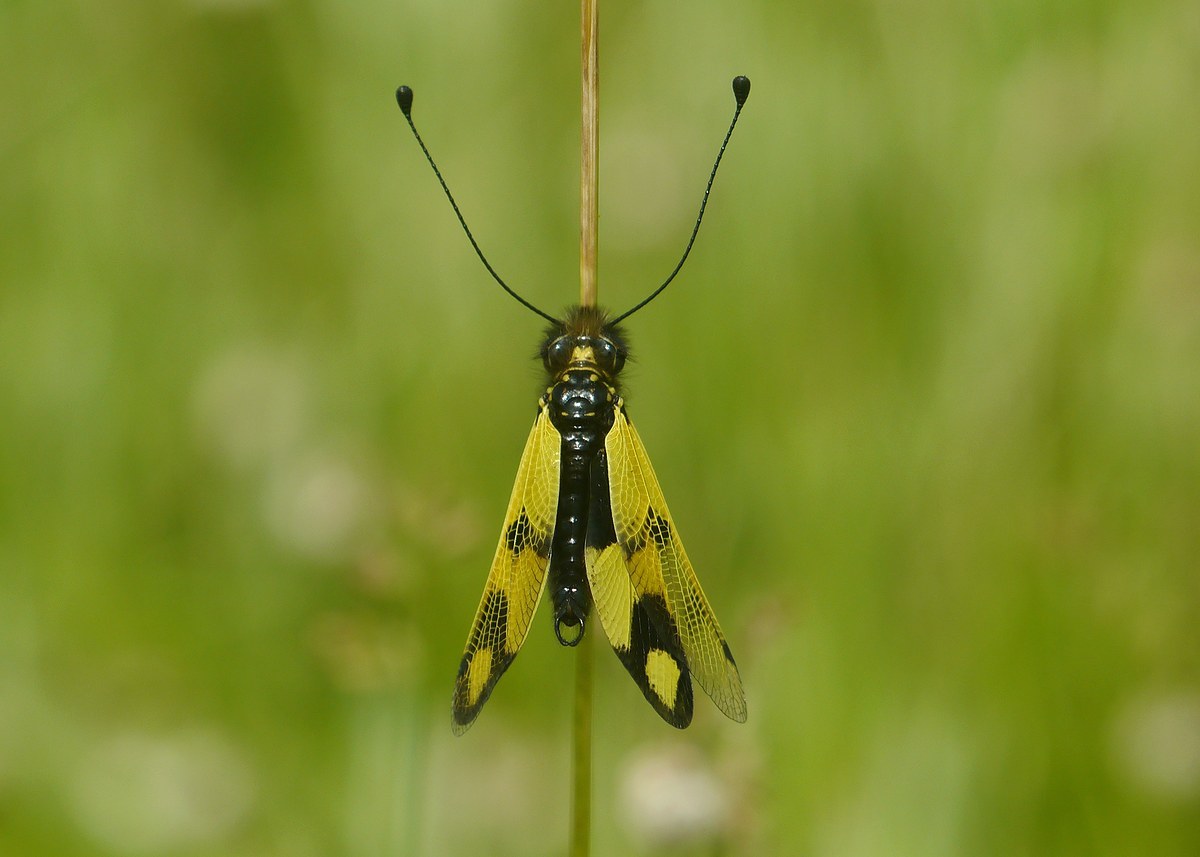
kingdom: Animalia
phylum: Arthropoda
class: Insecta
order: Neuroptera
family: Ascalaphidae
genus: Libelloides
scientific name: Libelloides macaronius
